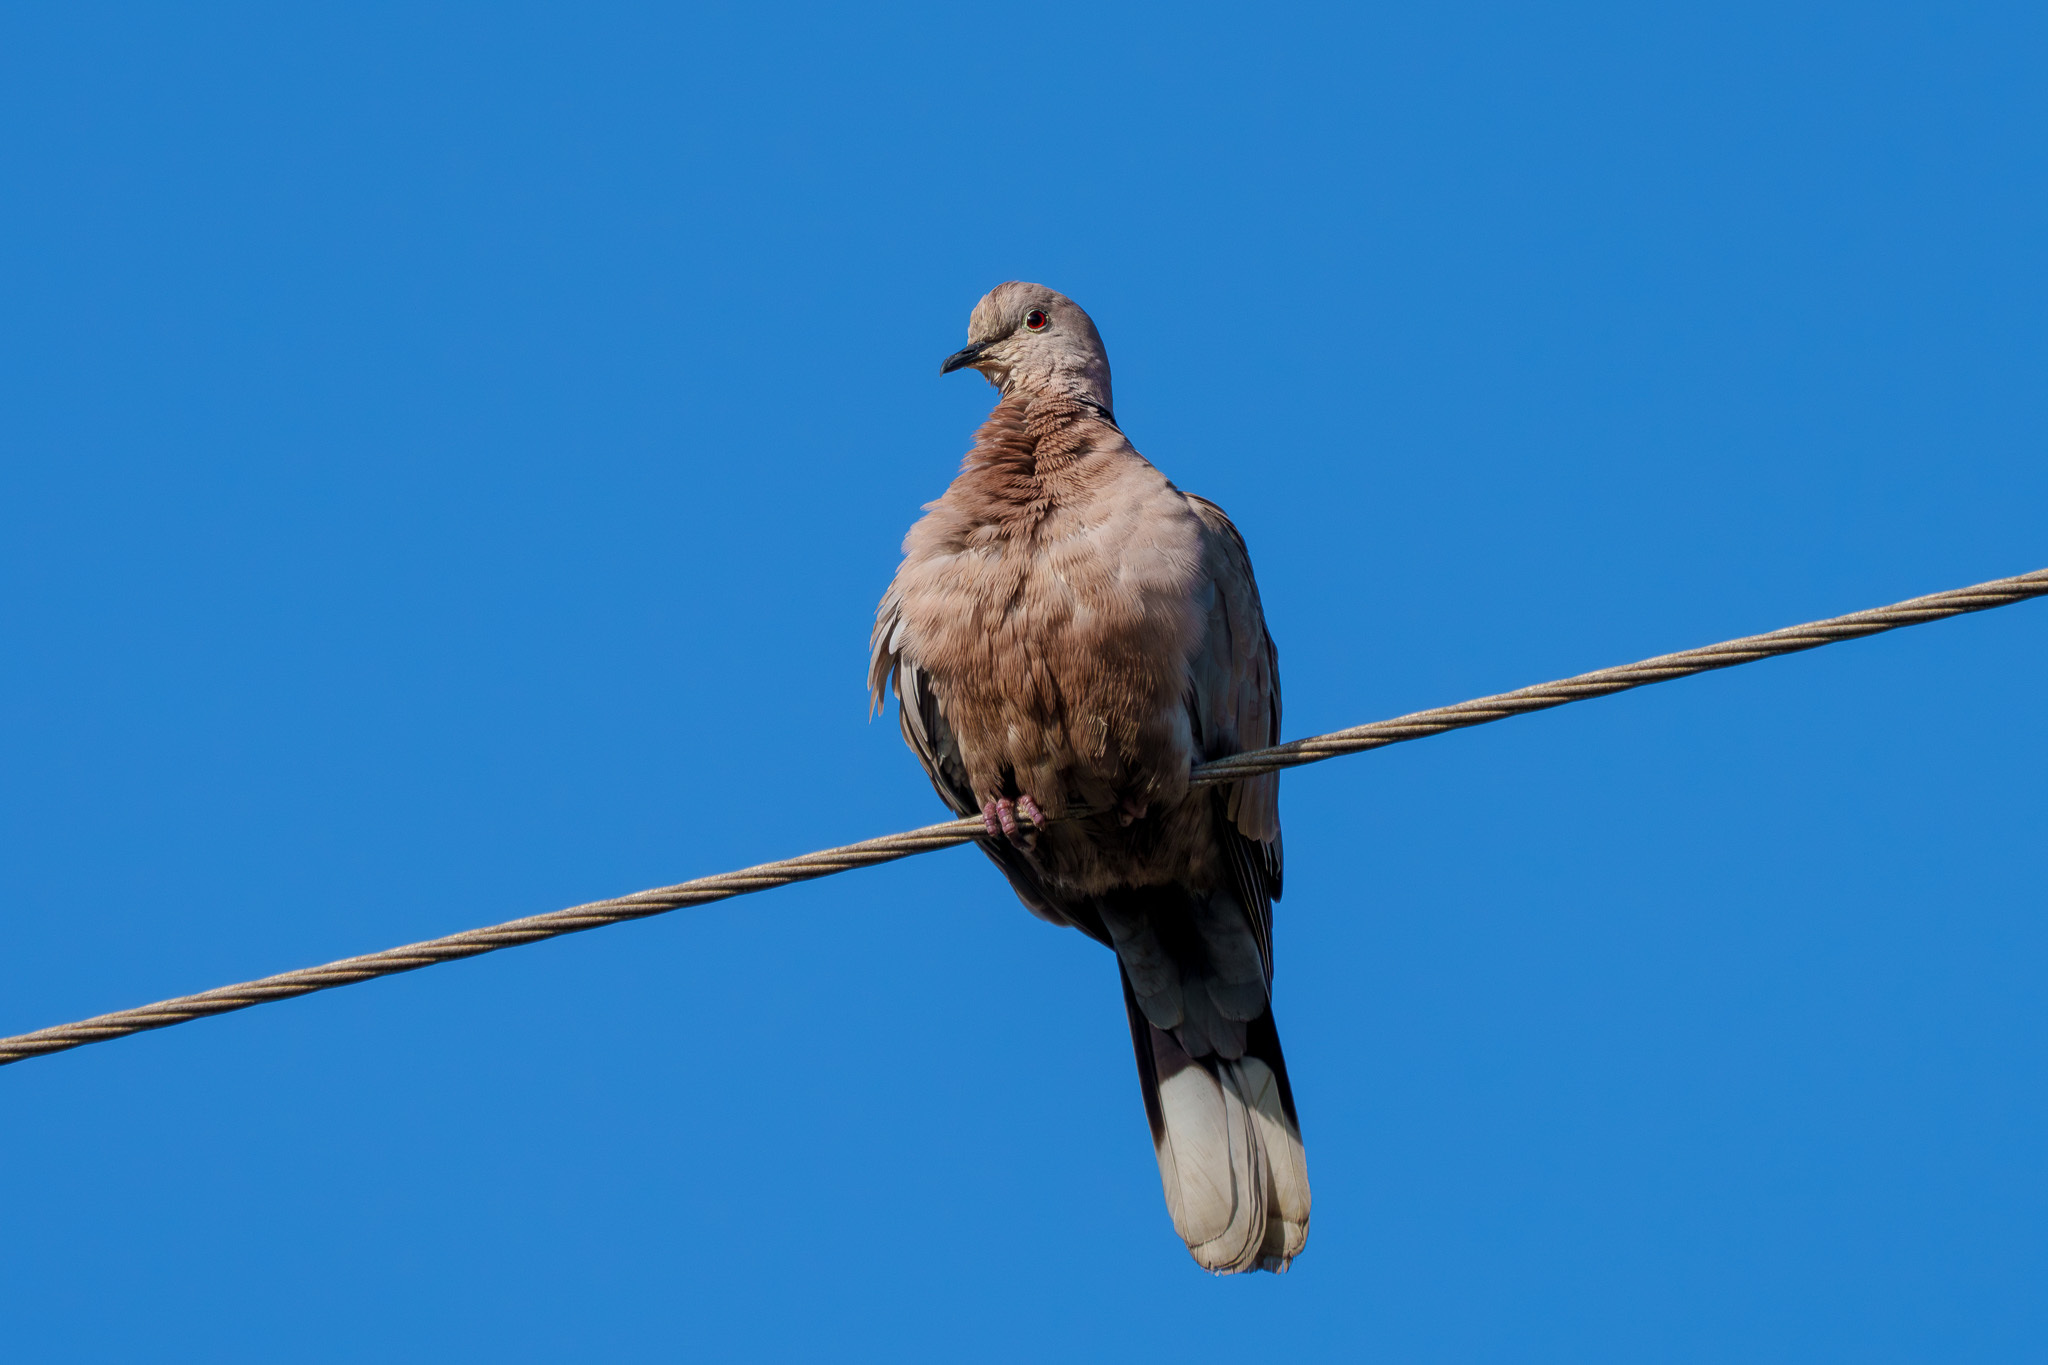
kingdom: Animalia
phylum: Chordata
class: Aves
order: Columbiformes
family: Columbidae
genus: Streptopelia
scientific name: Streptopelia decaocto
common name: Eurasian collared dove
